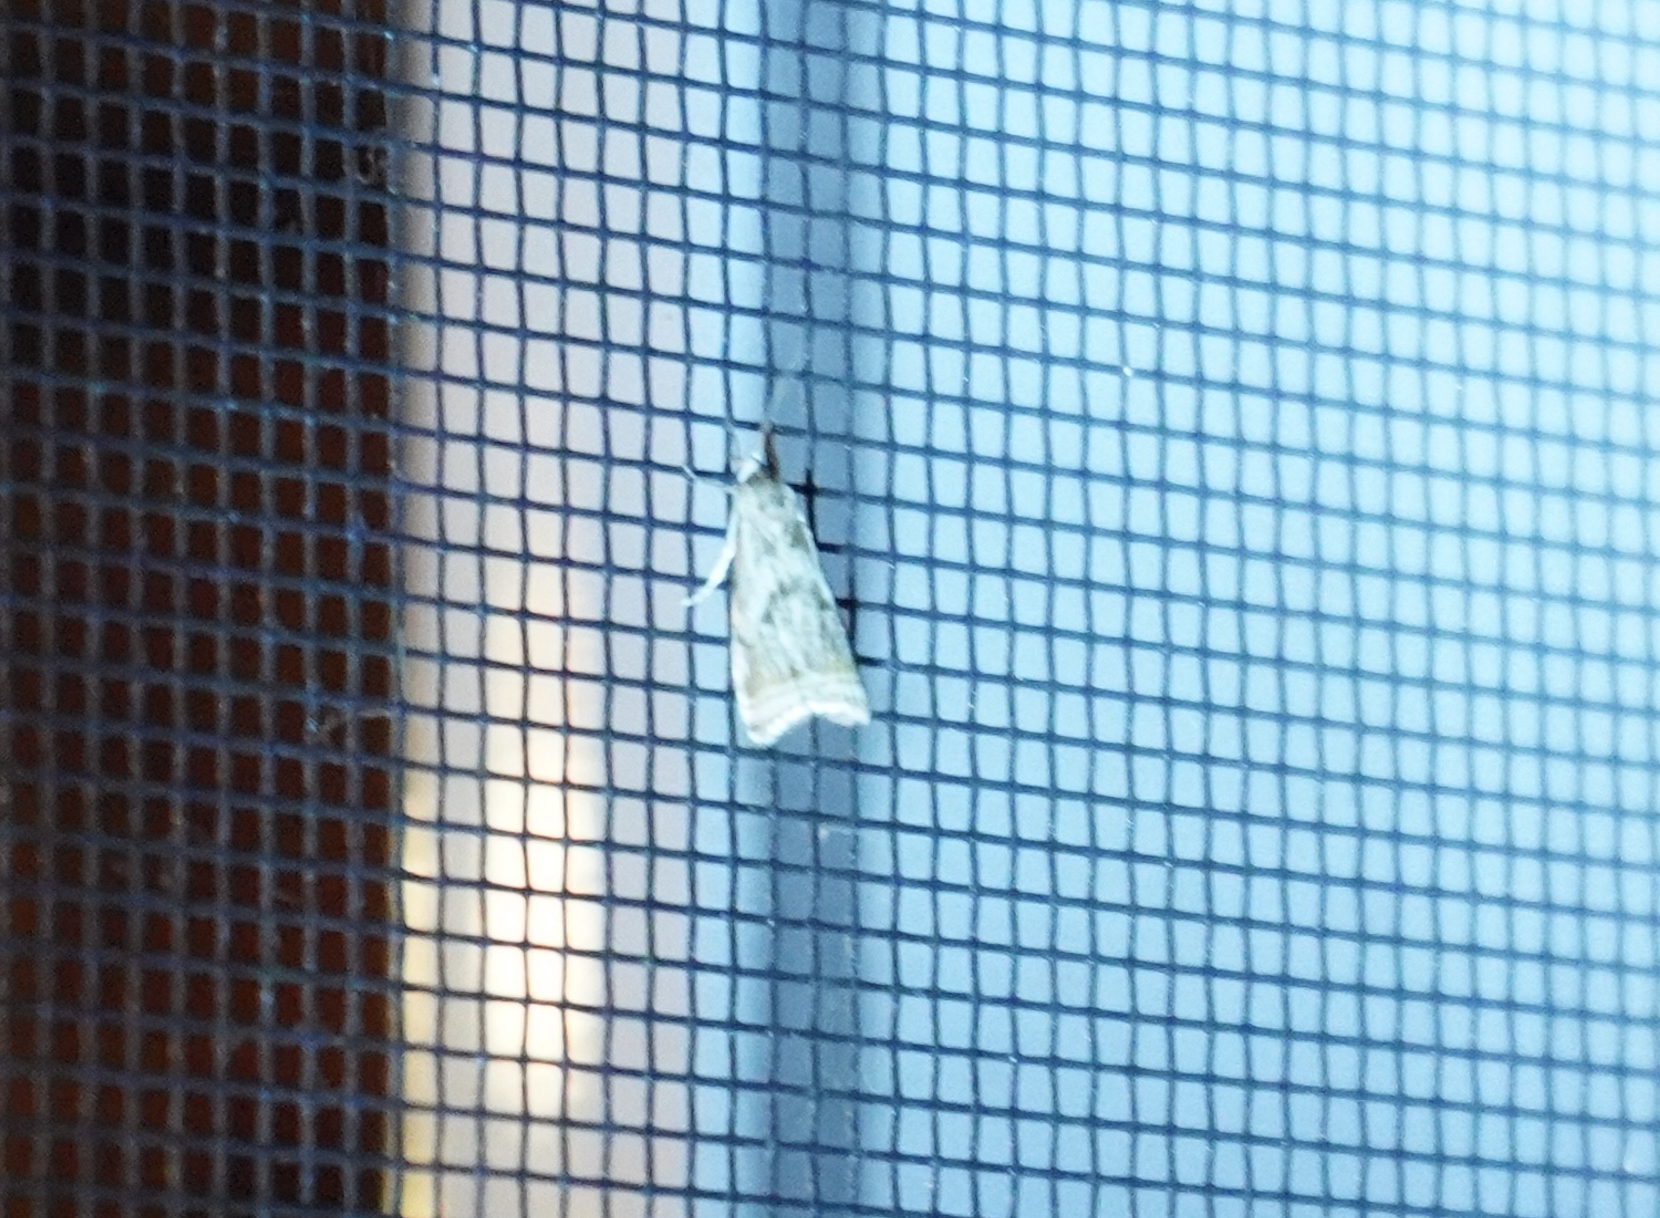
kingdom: Animalia
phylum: Arthropoda
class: Insecta
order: Lepidoptera
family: Crambidae
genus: Microcrambus
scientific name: Microcrambus elegans
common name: Elegant grass-veneer
